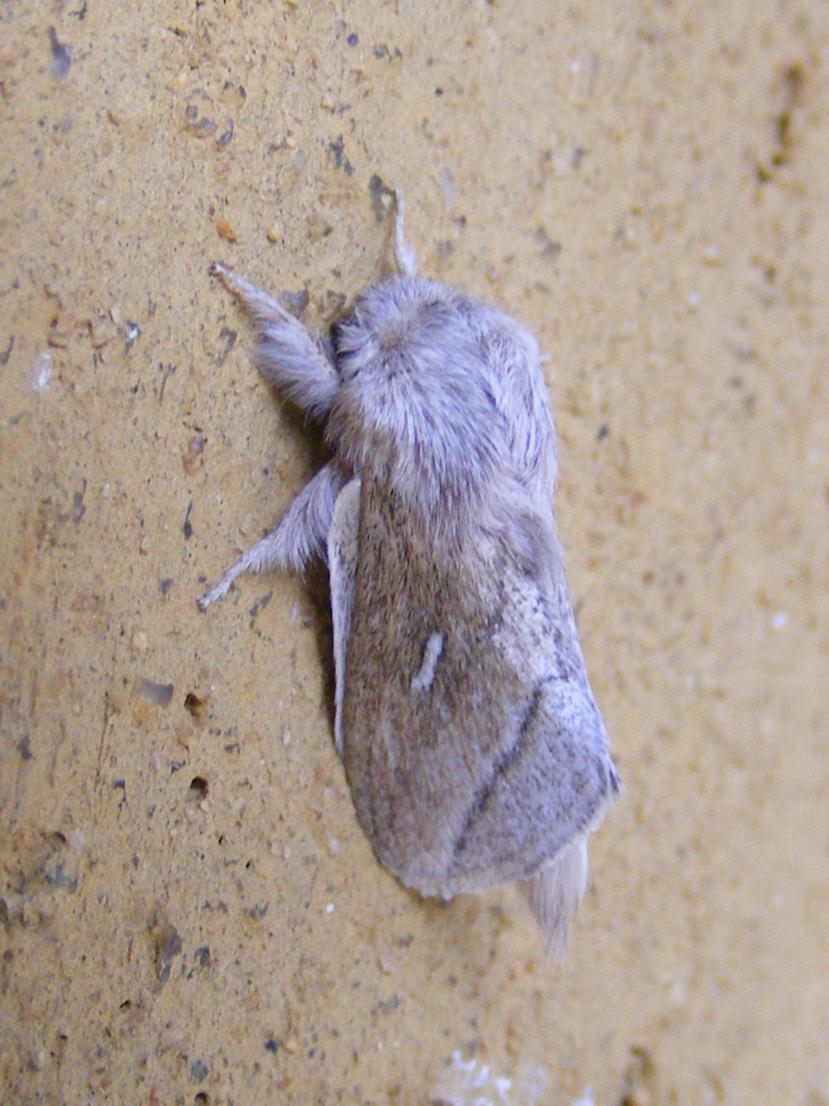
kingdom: Animalia
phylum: Arthropoda
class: Insecta
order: Lepidoptera
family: Lasiocampidae
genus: Sena
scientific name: Sena prompta
